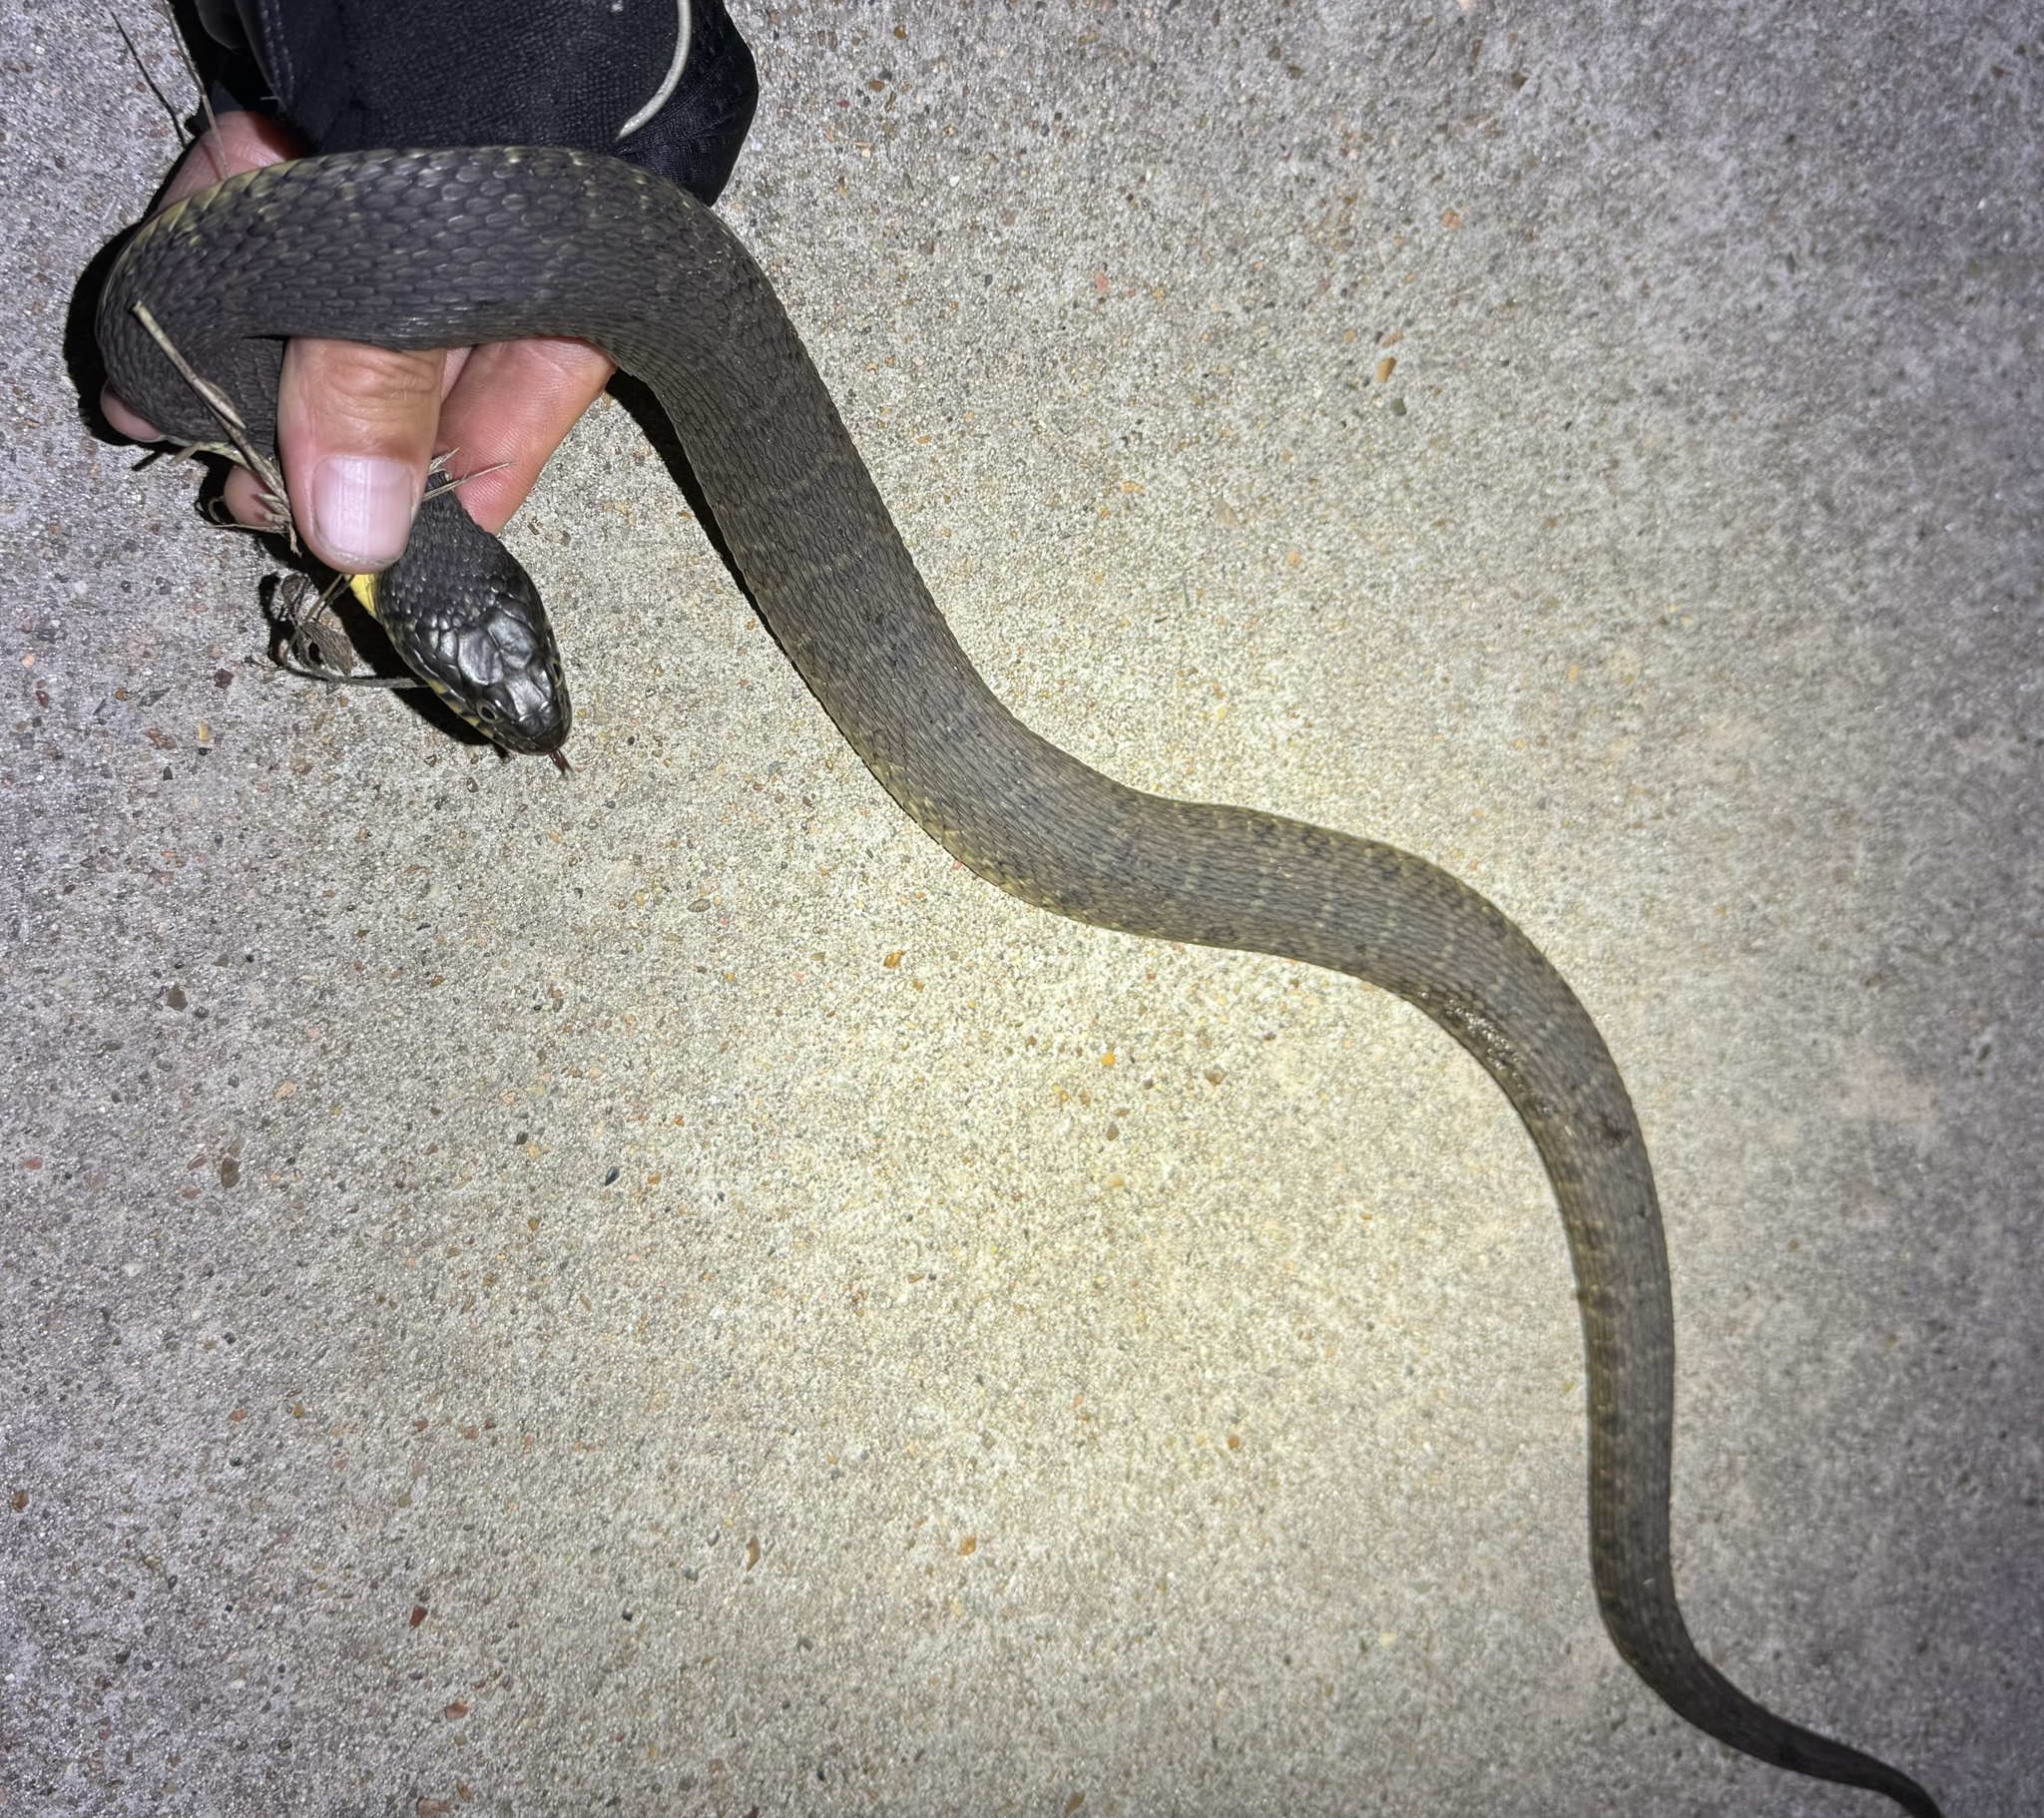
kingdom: Animalia
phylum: Chordata
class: Squamata
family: Colubridae
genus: Nerodia
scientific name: Nerodia erythrogaster
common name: Plainbelly water snake
